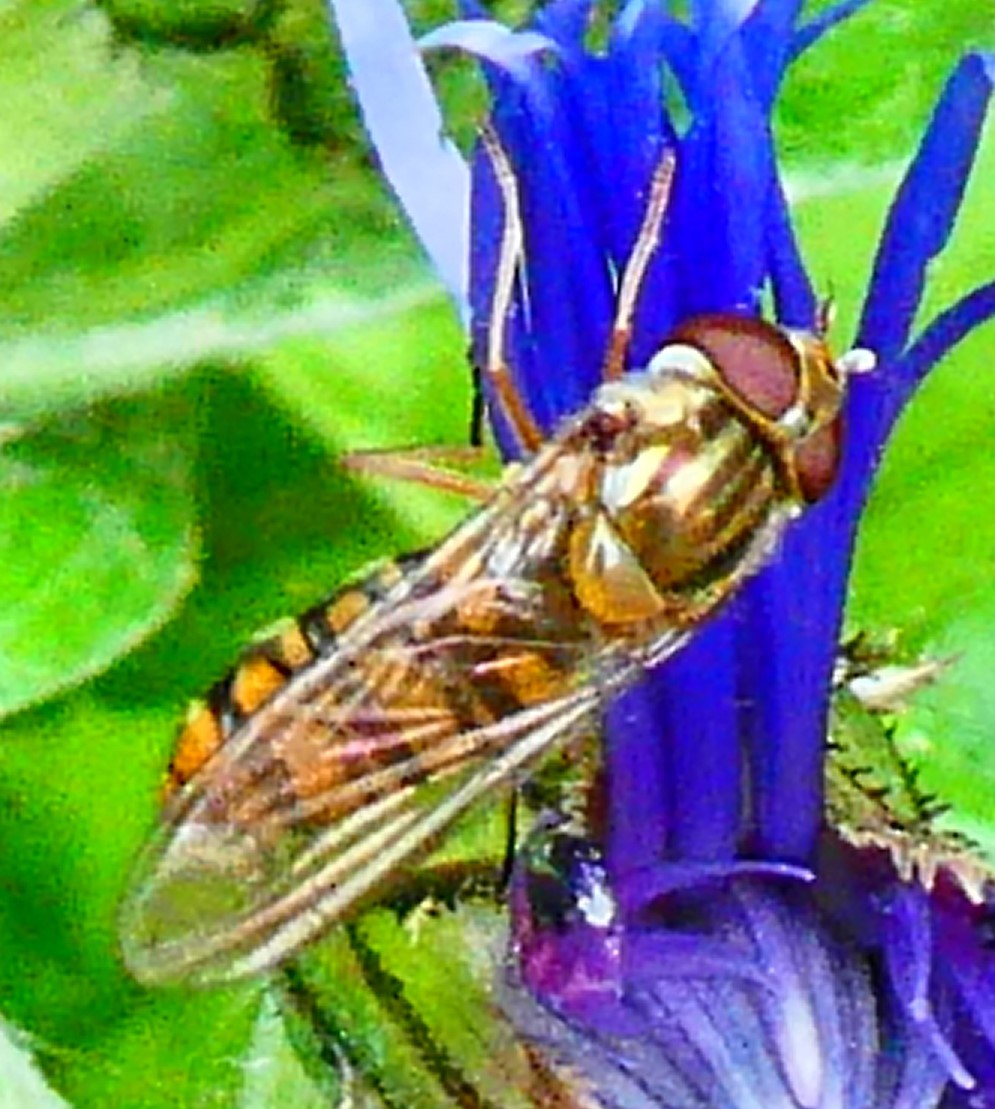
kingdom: Animalia
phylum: Arthropoda
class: Insecta
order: Diptera
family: Syrphidae
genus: Episyrphus
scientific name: Episyrphus balteatus
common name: Marmalade hoverfly
